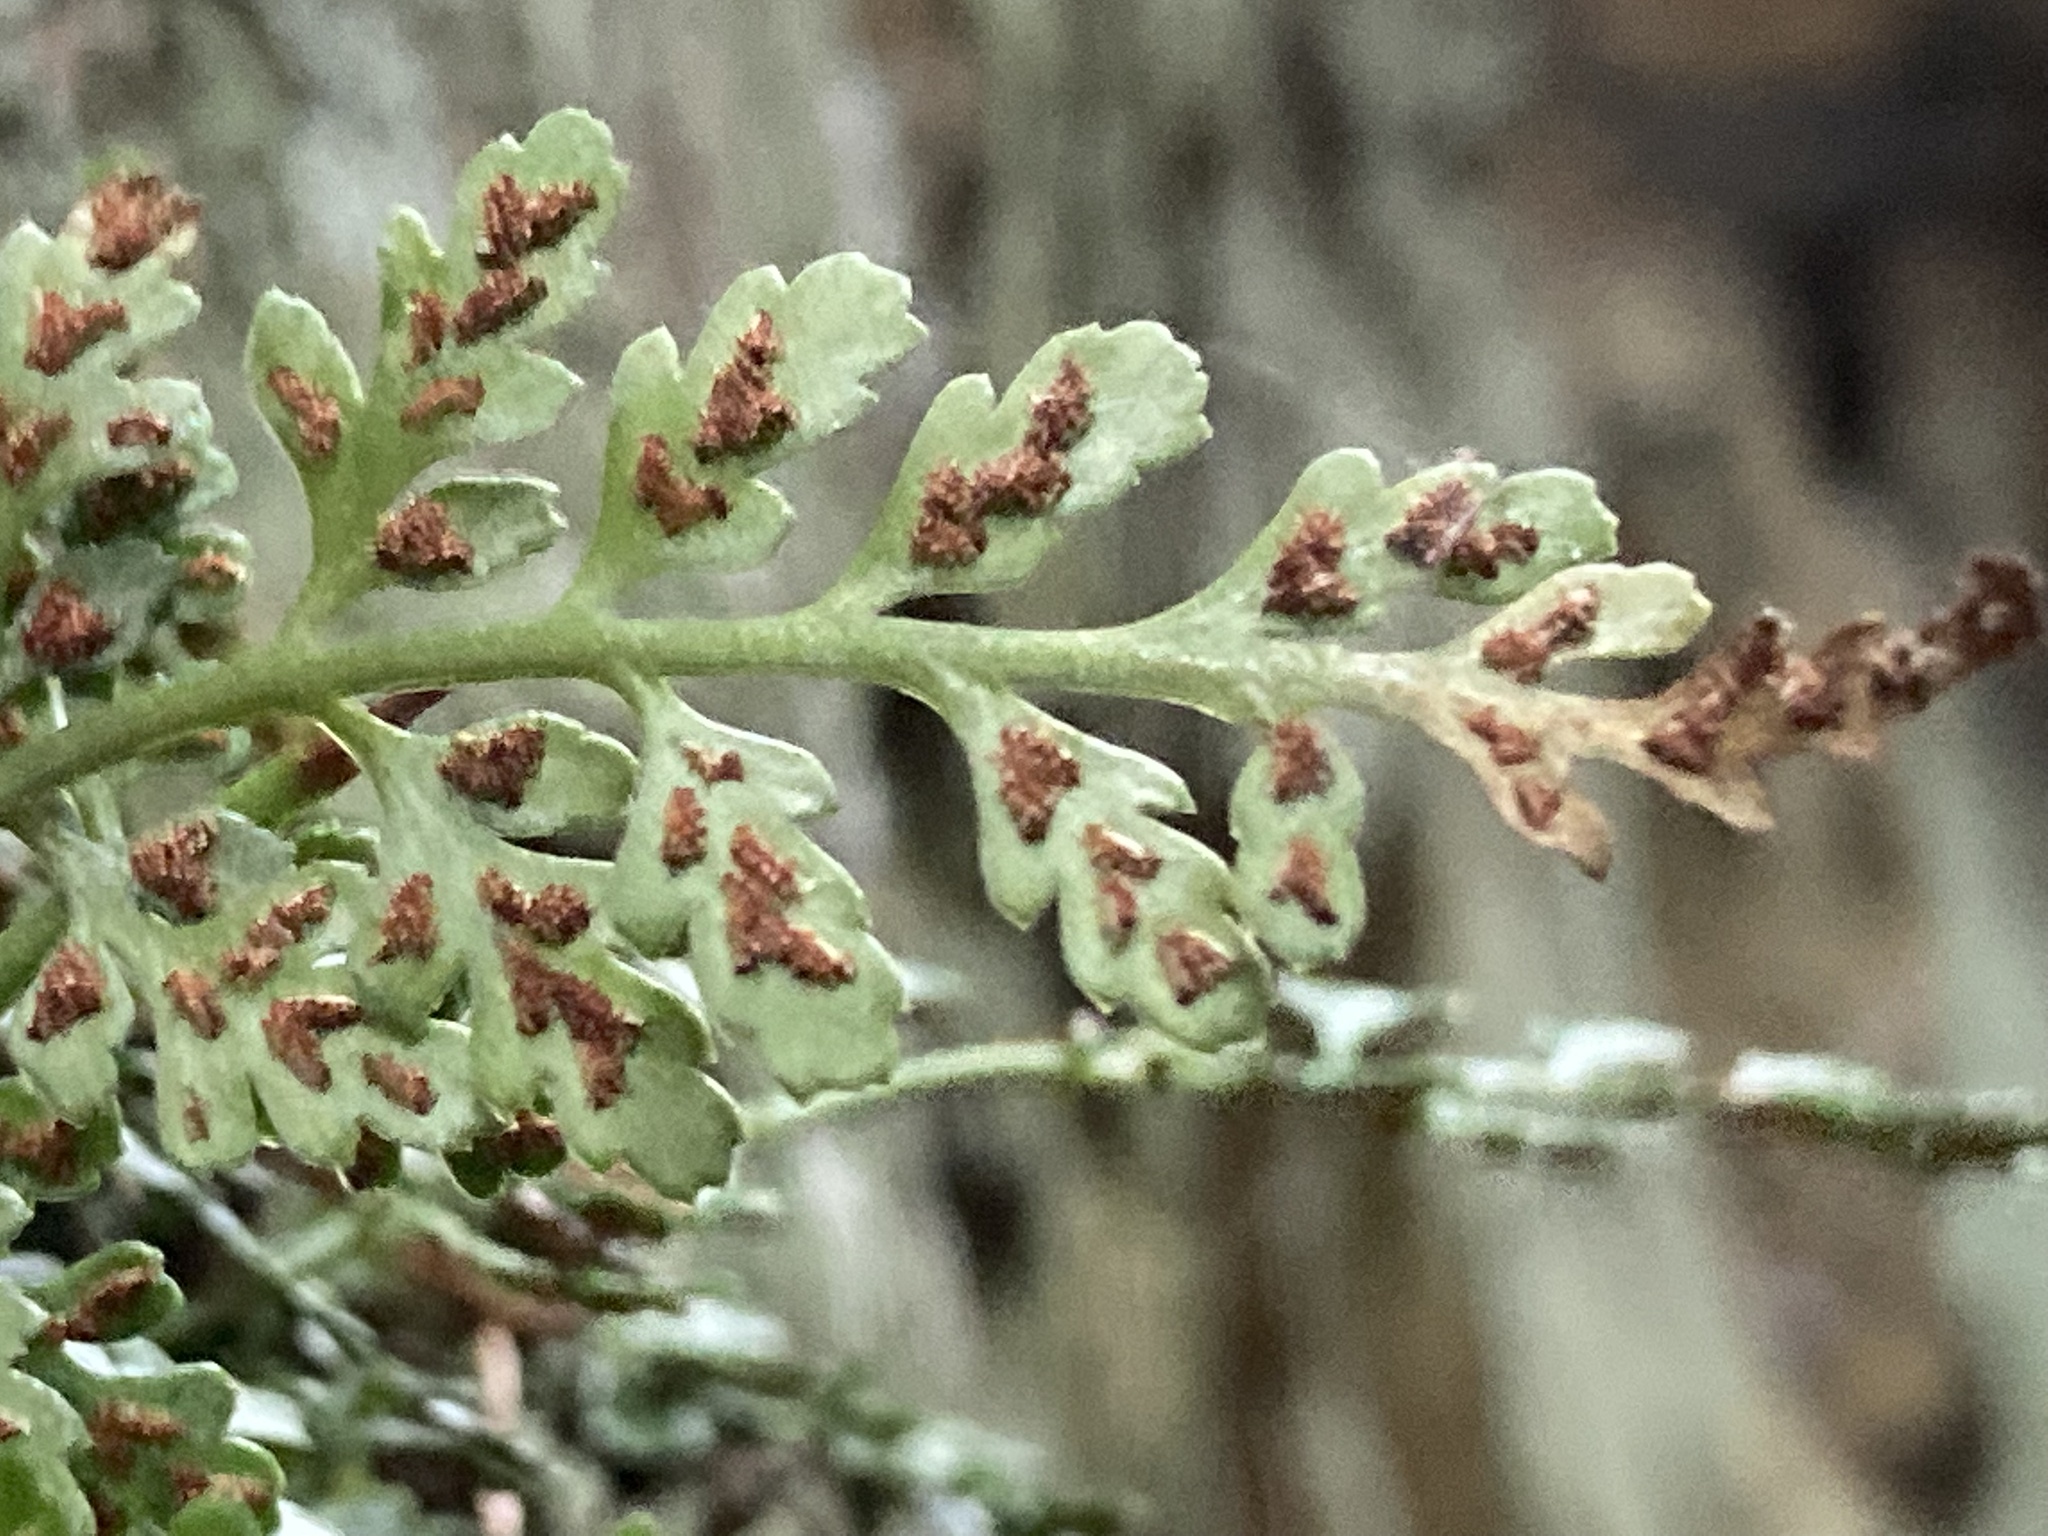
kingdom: Plantae
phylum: Tracheophyta
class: Polypodiopsida
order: Polypodiales
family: Aspleniaceae
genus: Asplenium
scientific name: Asplenium montanum
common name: Mountain spleenwort
